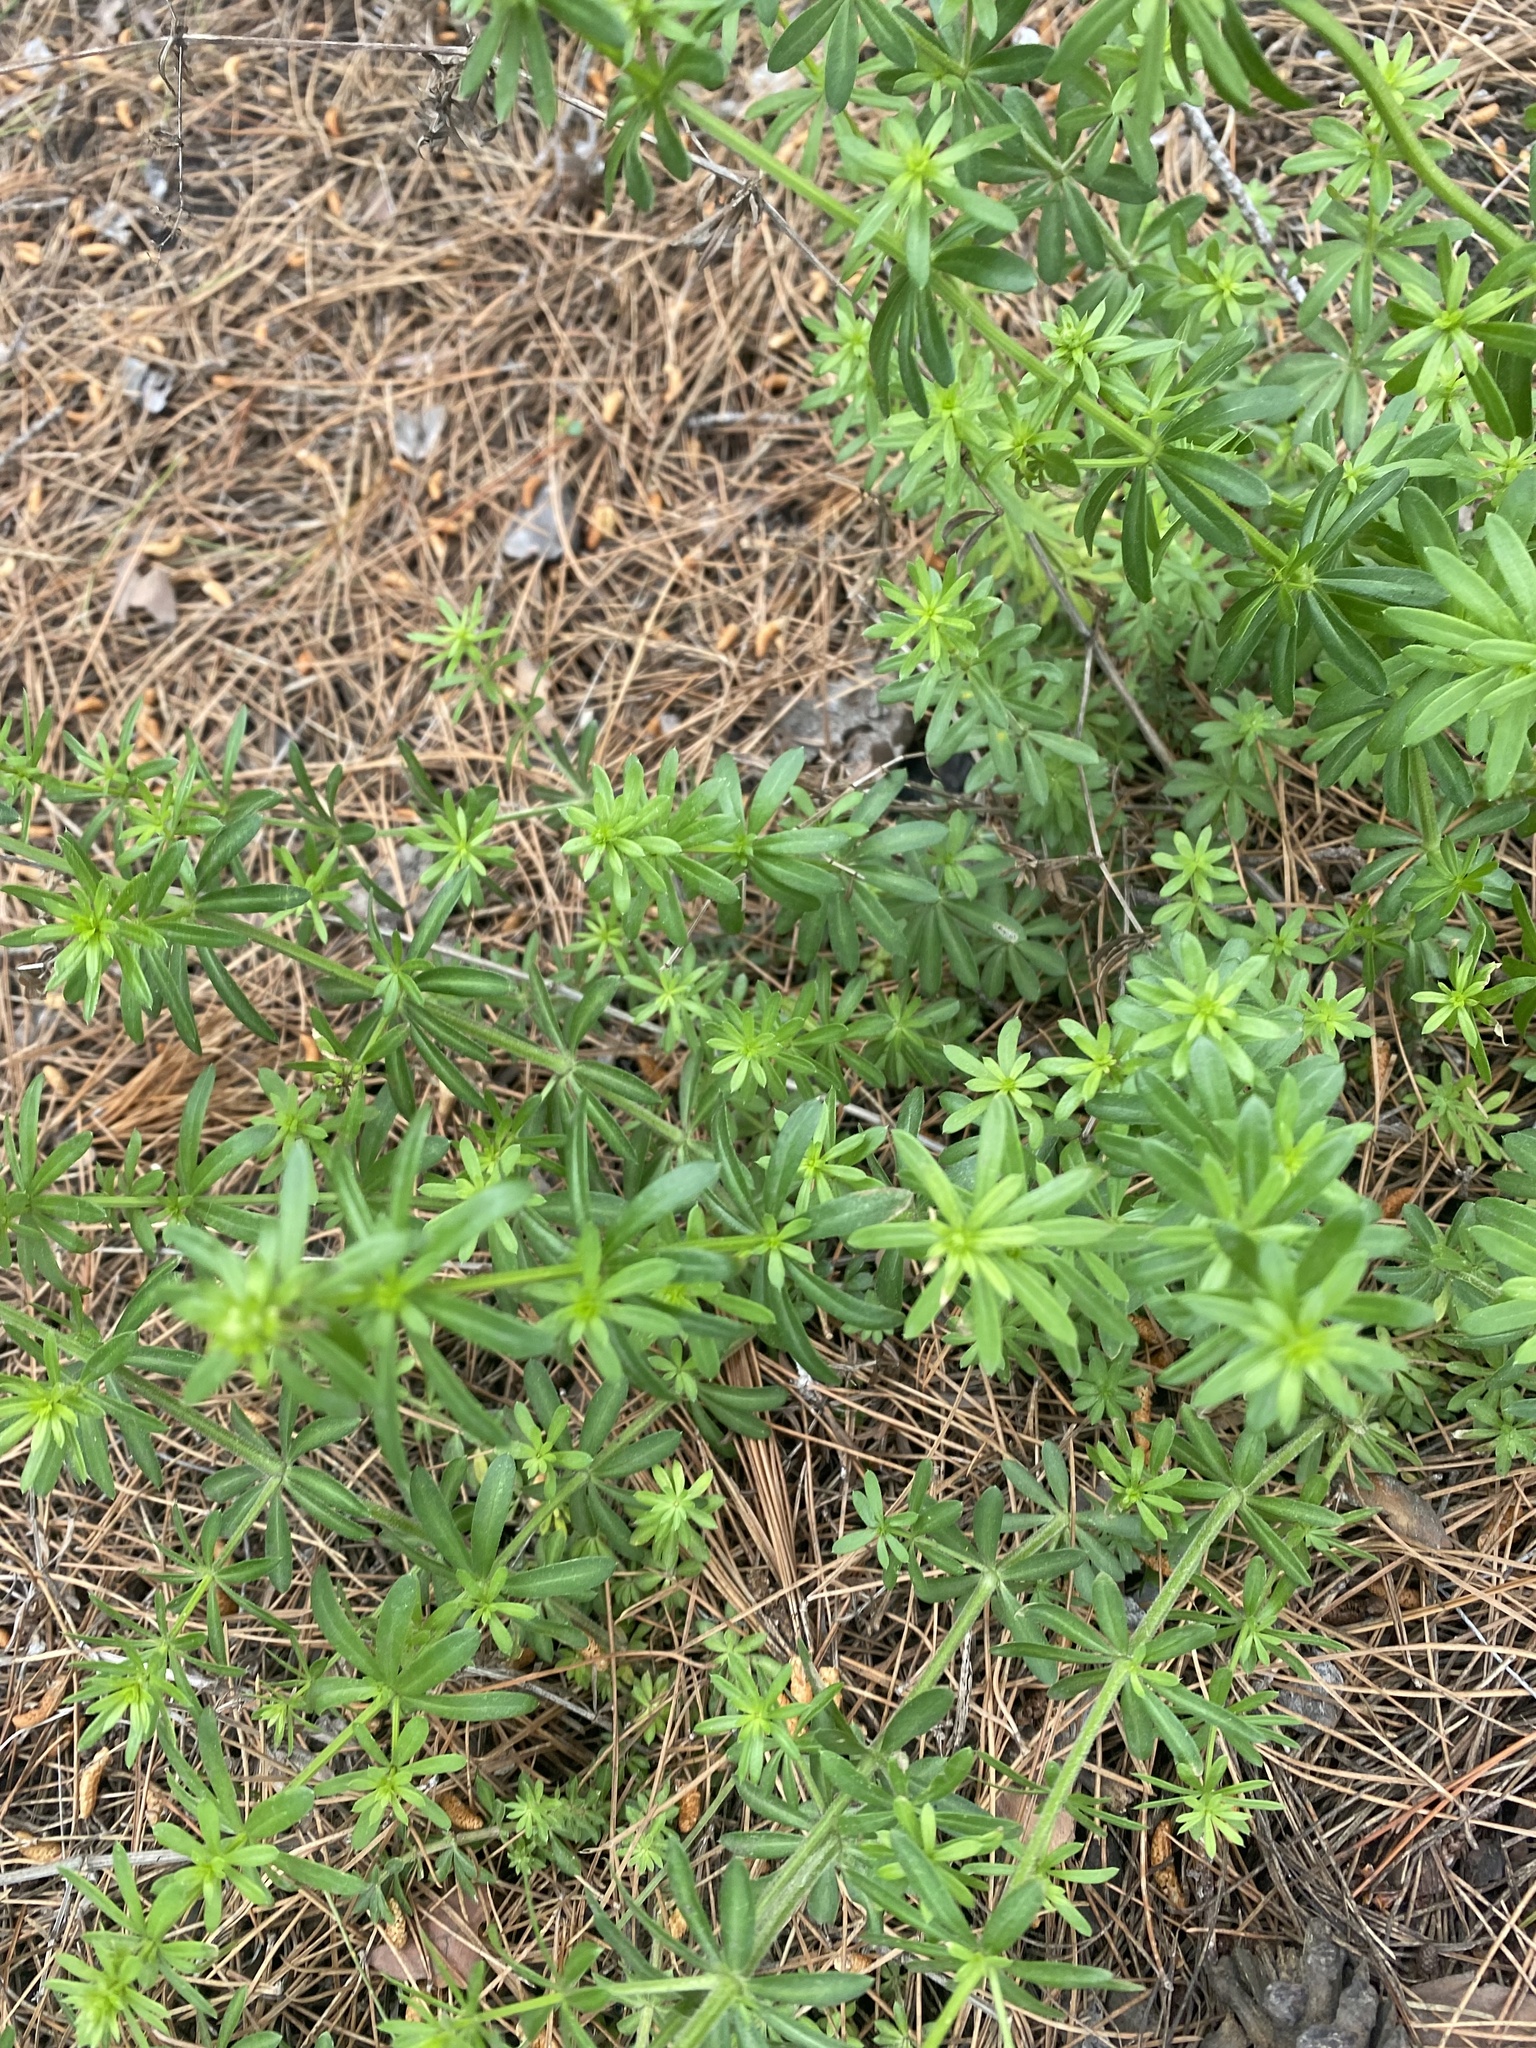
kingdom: Plantae
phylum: Tracheophyta
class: Magnoliopsida
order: Gentianales
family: Rubiaceae
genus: Galium
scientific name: Galium mollugo
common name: Hedge bedstraw
